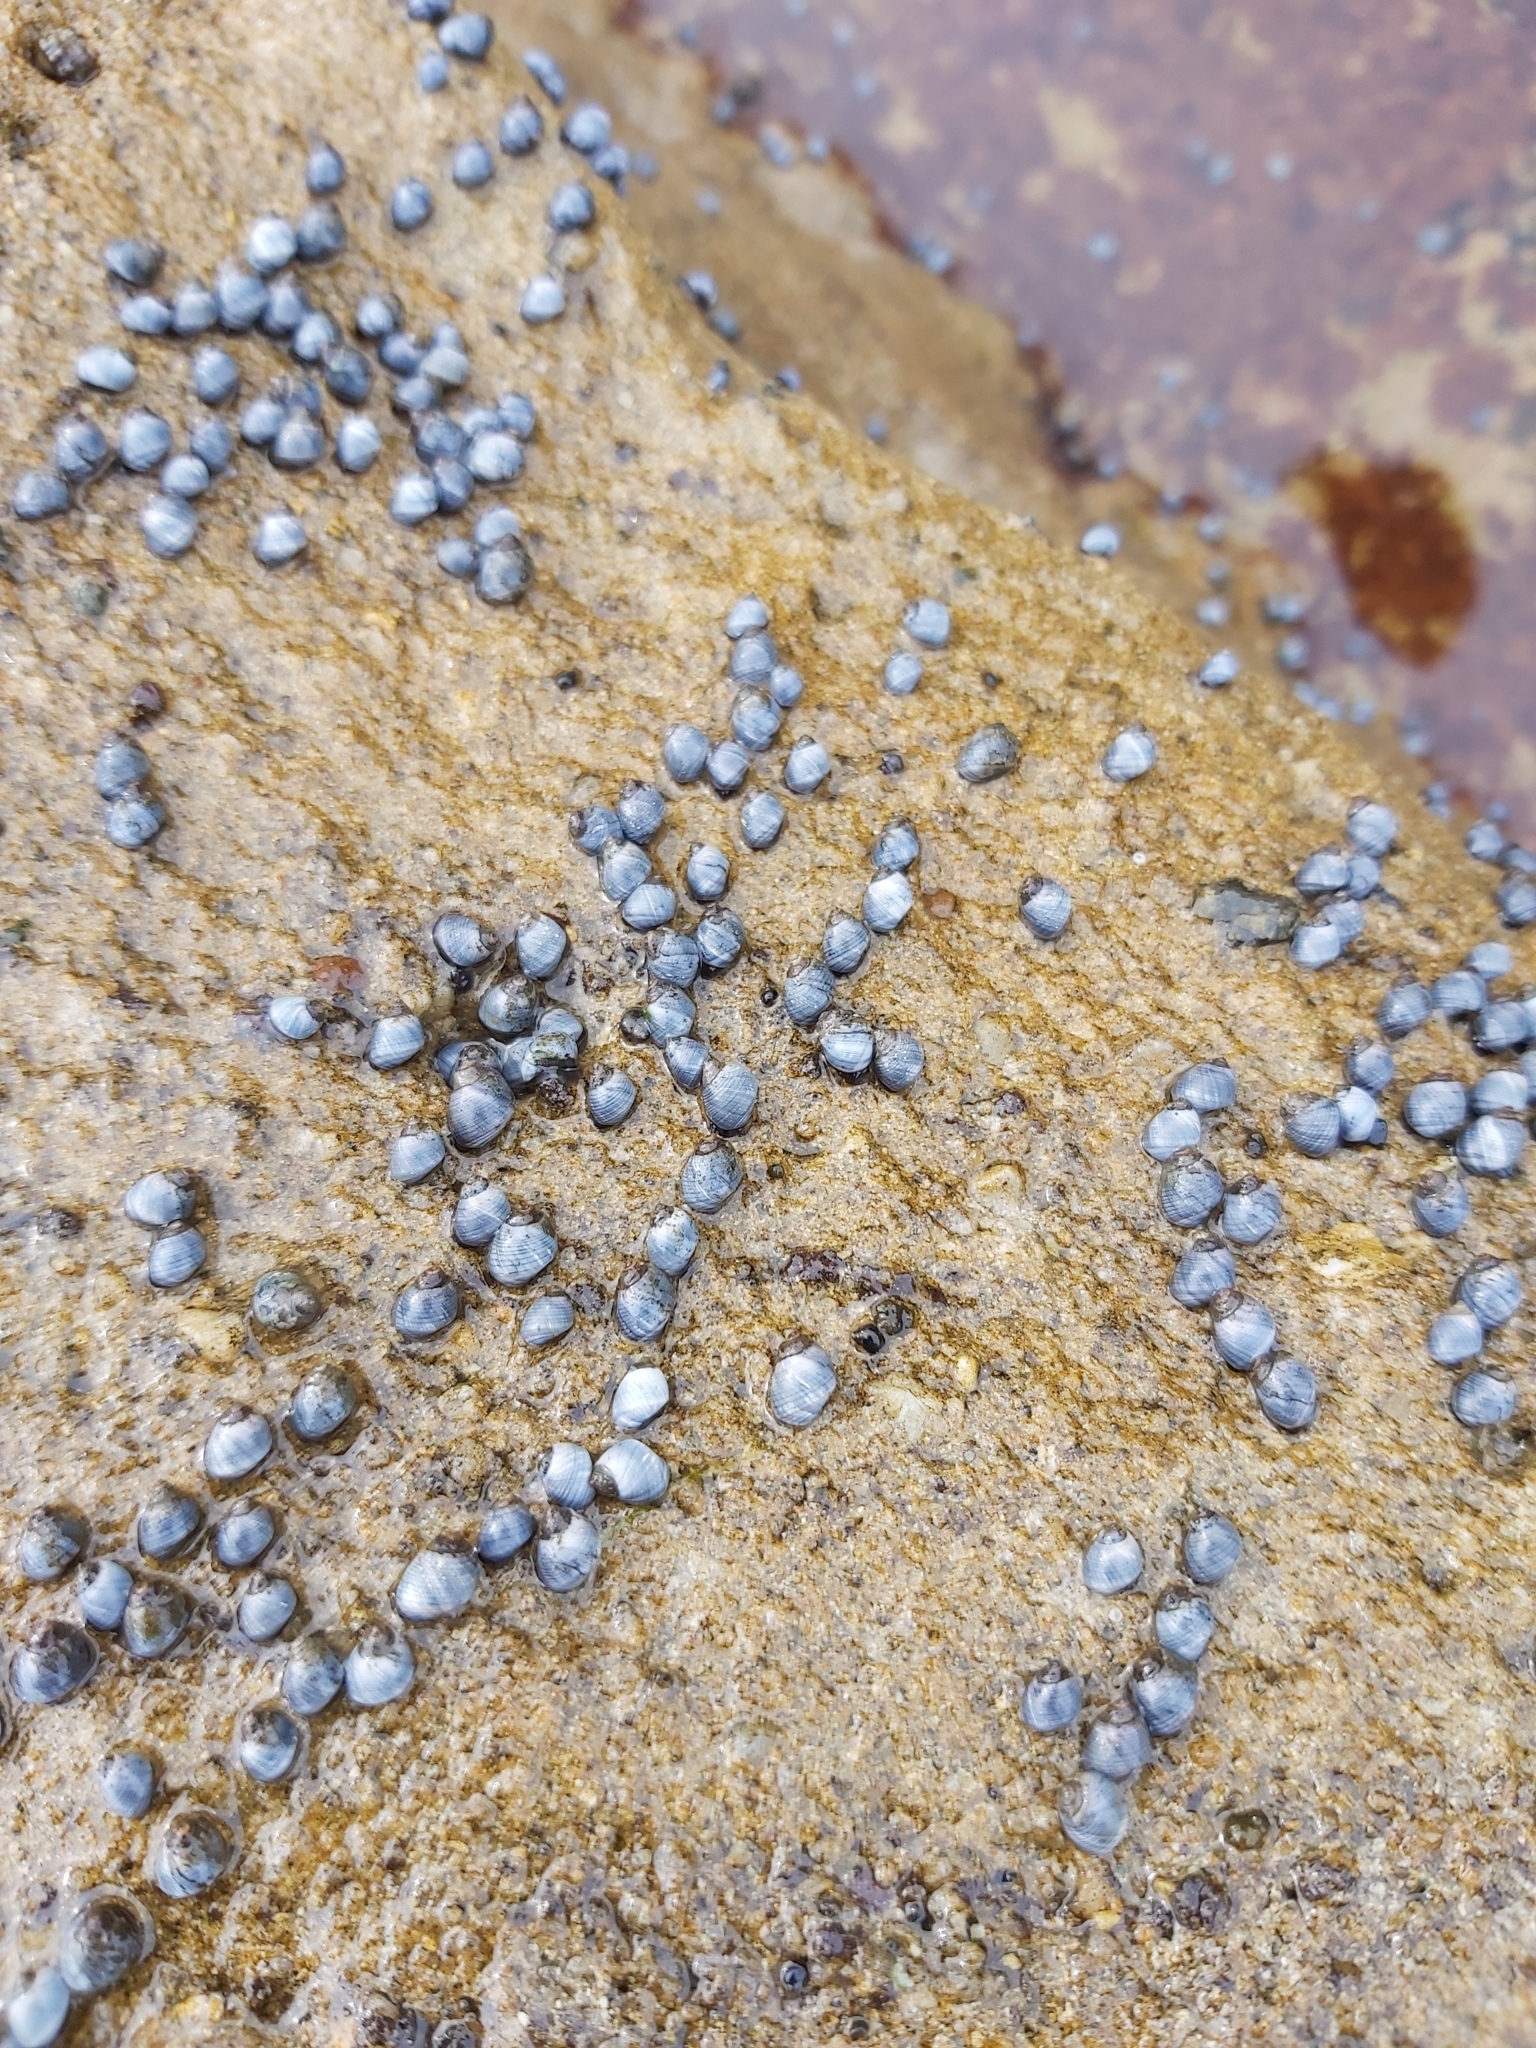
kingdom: Animalia
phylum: Mollusca
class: Gastropoda
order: Littorinimorpha
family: Littorinidae
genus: Austrolittorina
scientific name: Austrolittorina unifasciata
